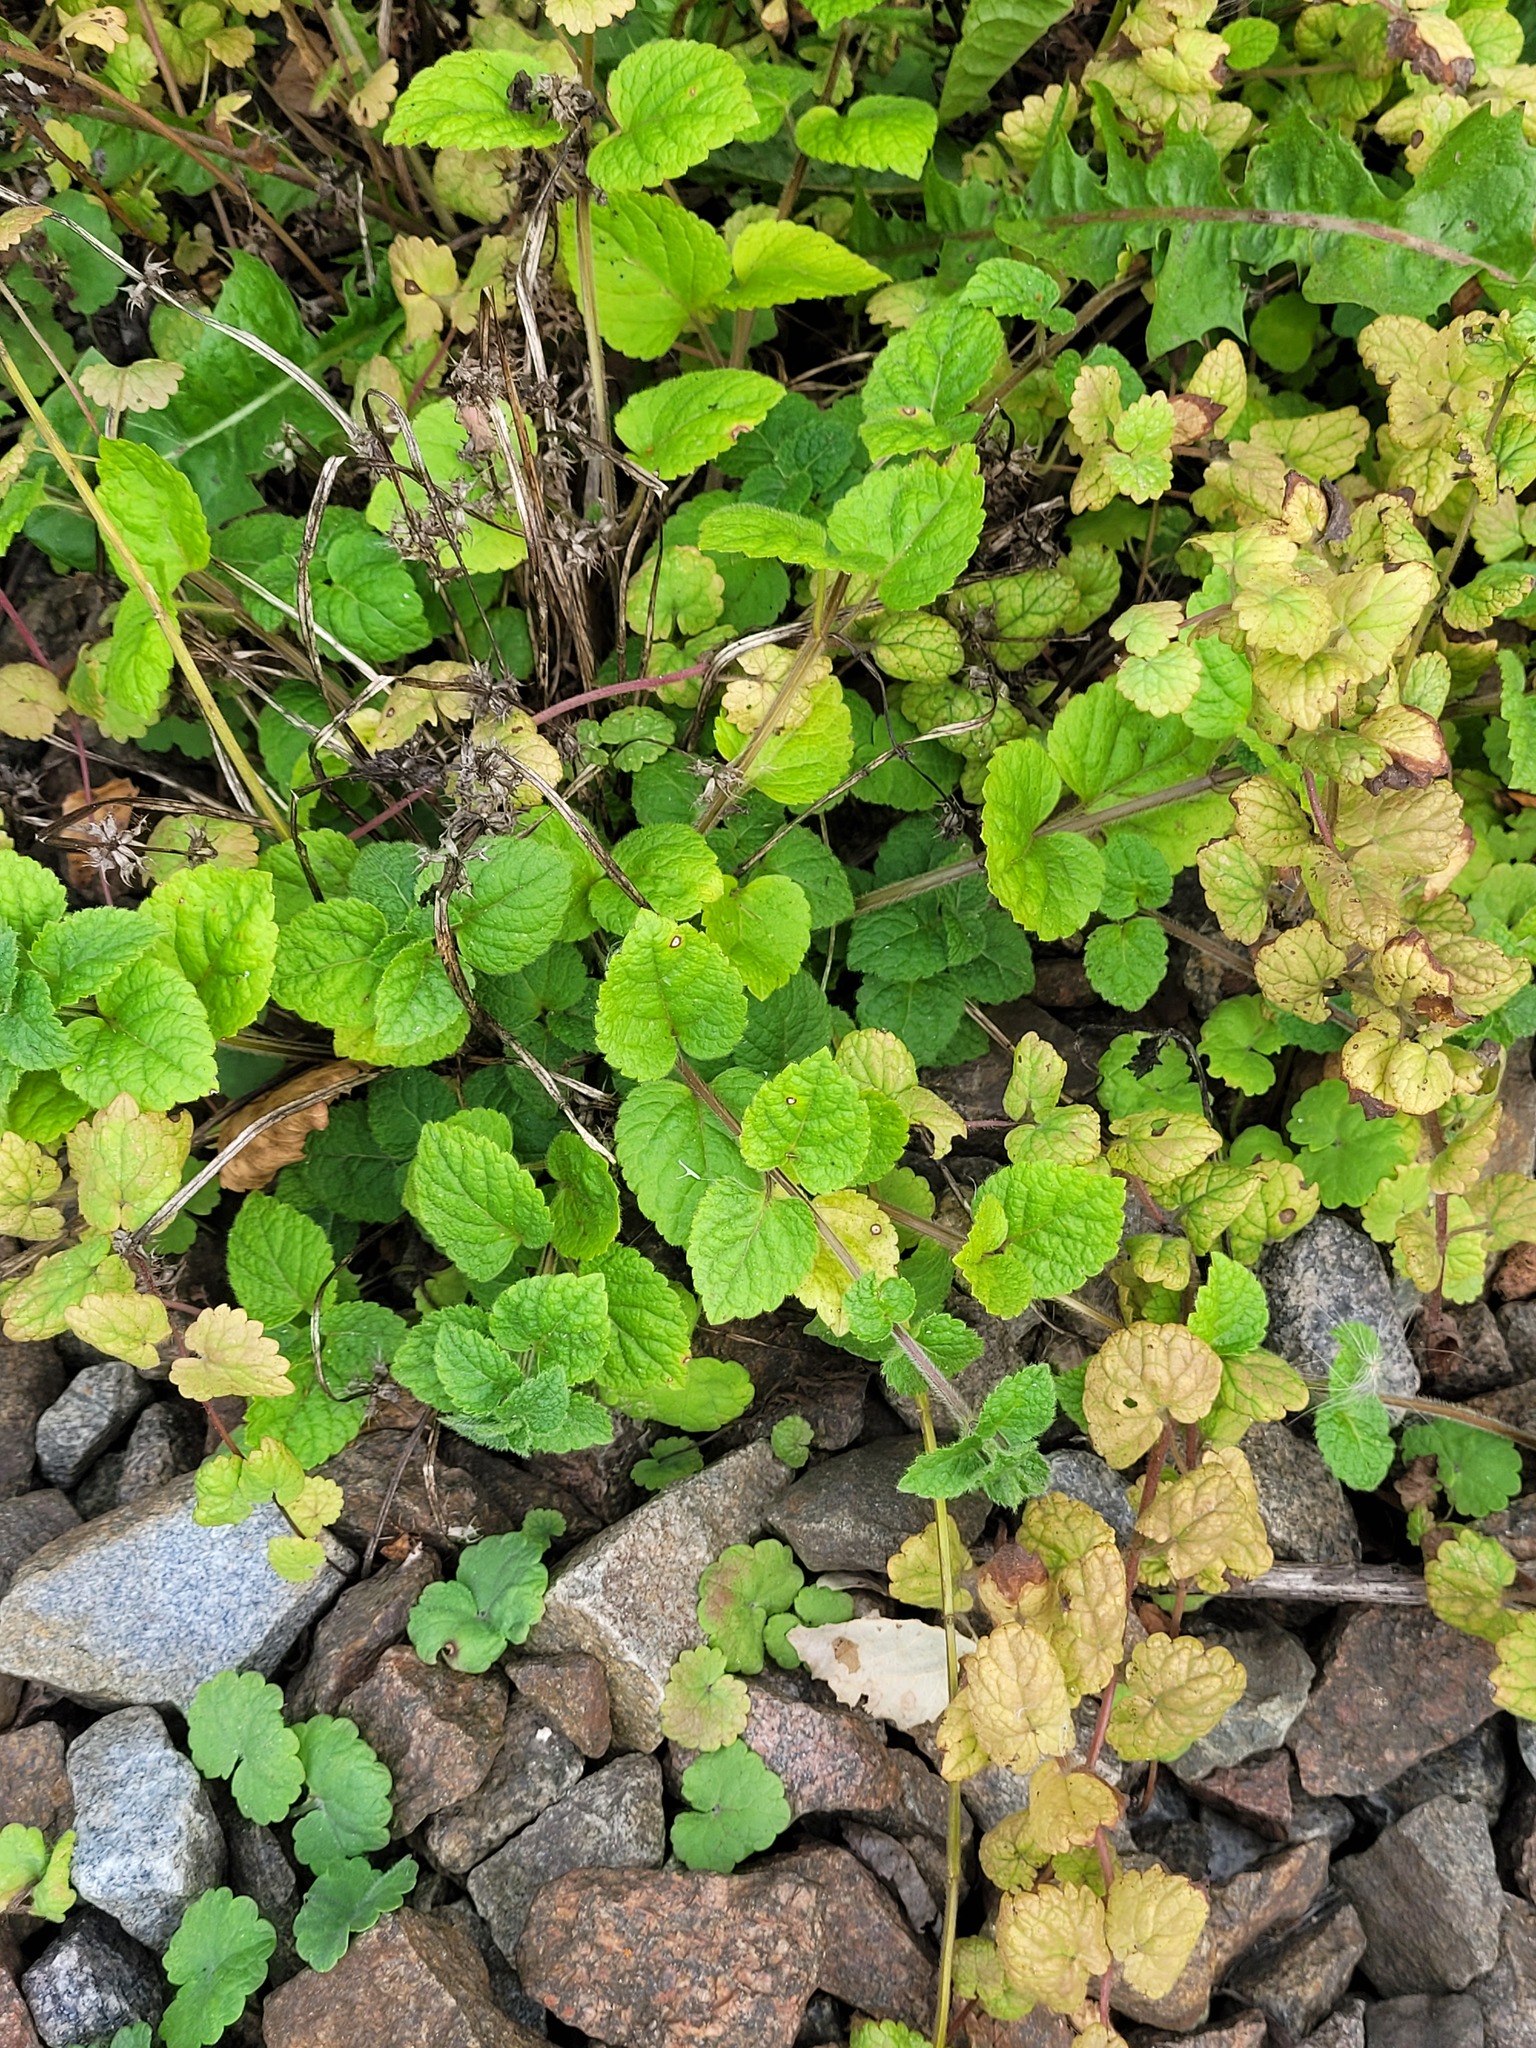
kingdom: Plantae
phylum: Tracheophyta
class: Magnoliopsida
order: Lamiales
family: Lamiaceae
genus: Lamium
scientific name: Lamium galeobdolon
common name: Yellow archangel
